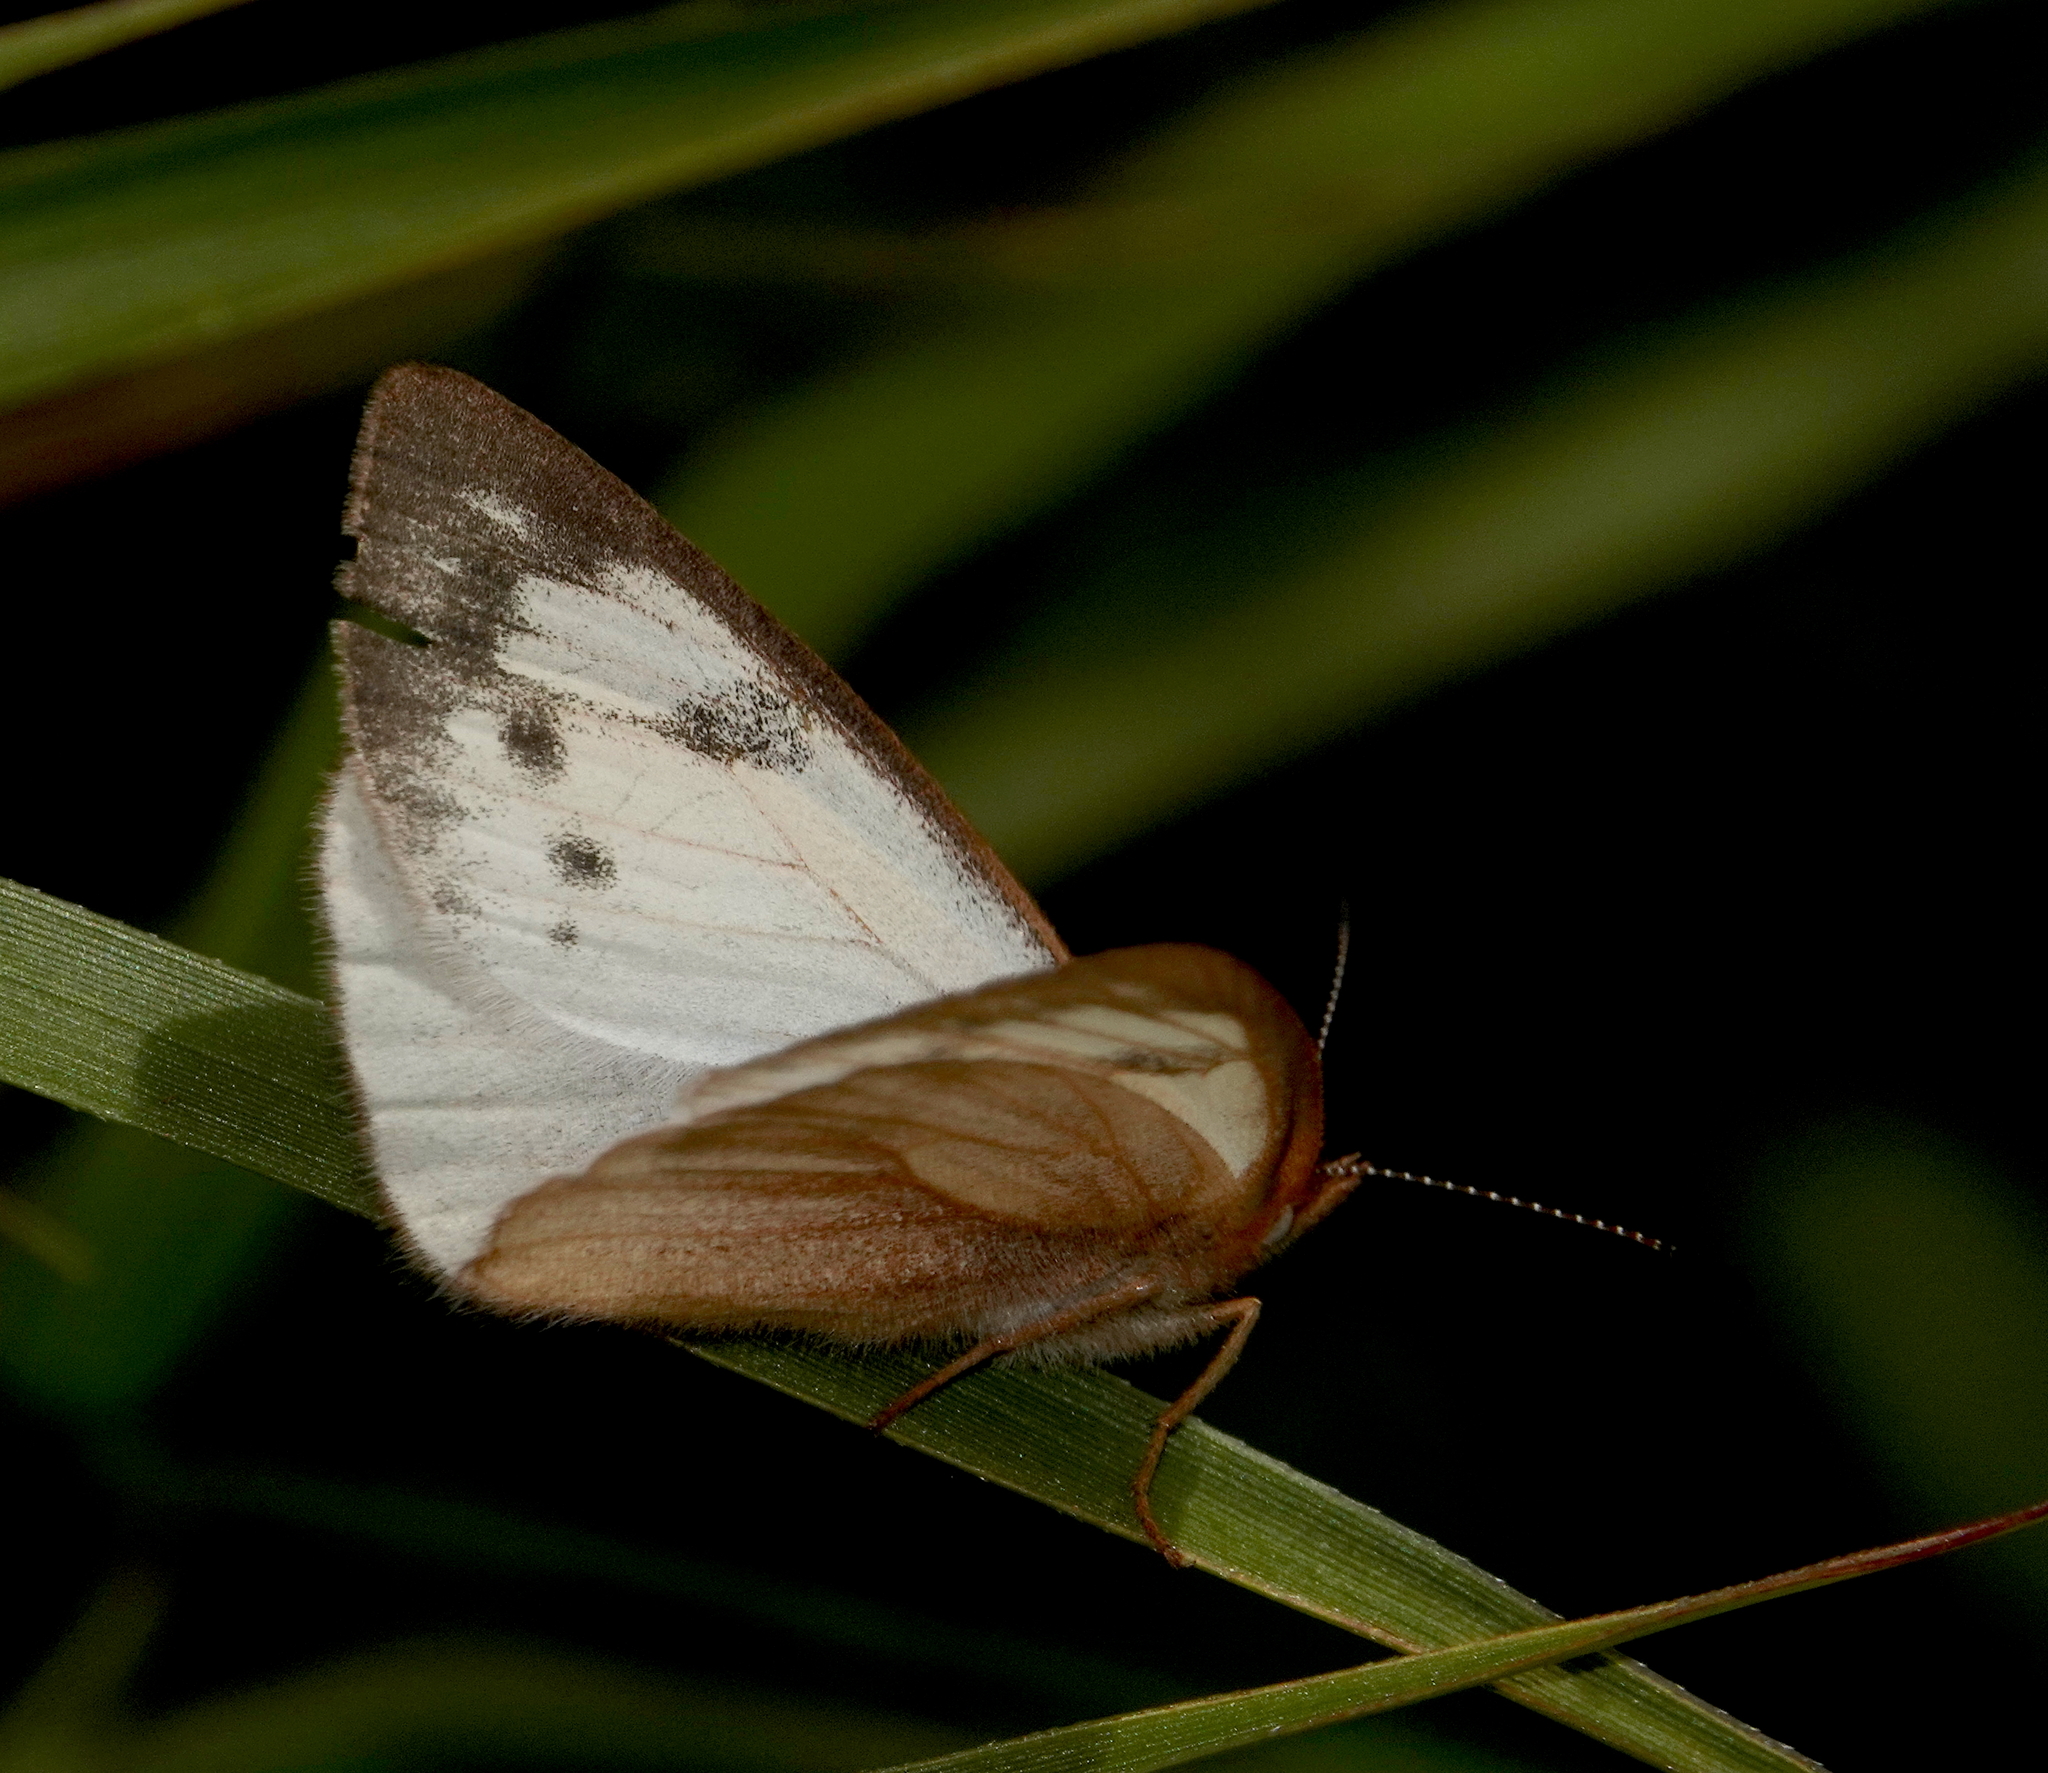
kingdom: Animalia
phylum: Arthropoda
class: Insecta
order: Lepidoptera
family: Nymphalidae
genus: Lymanopoda
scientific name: Lymanopoda nevada
